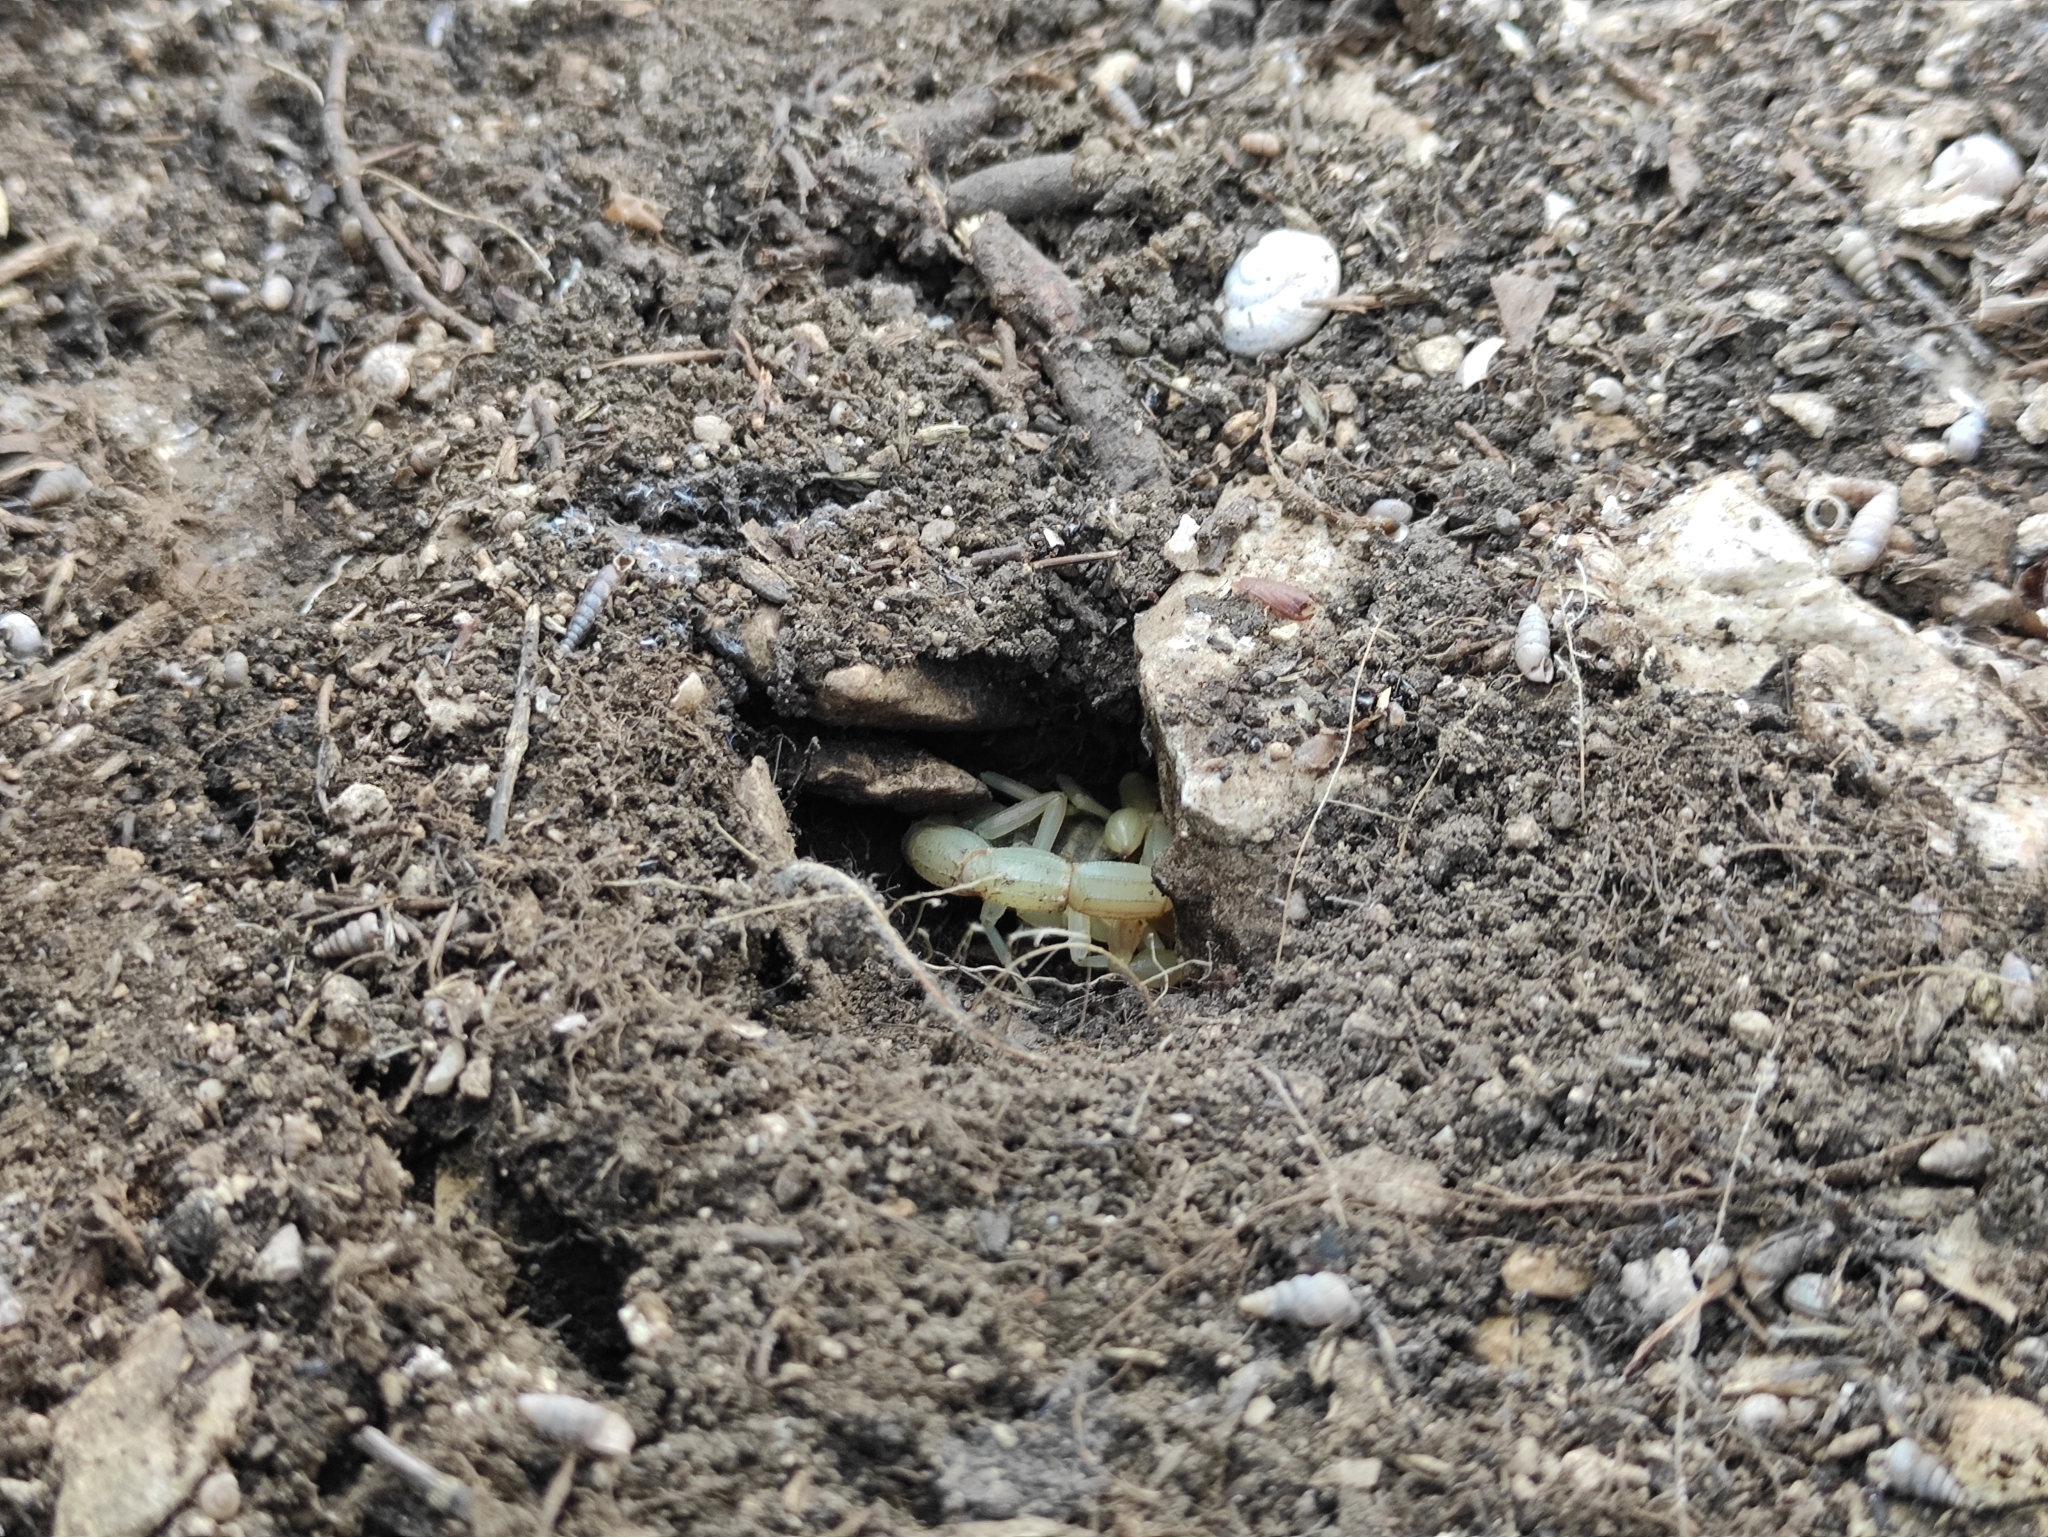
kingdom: Animalia
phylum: Arthropoda
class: Arachnida
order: Scorpiones
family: Buthidae
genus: Buthus
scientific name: Buthus balmensis
